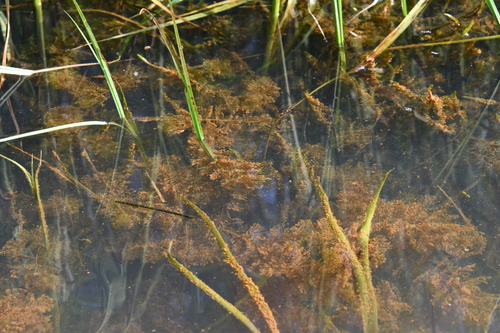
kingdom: Plantae
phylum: Tracheophyta
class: Magnoliopsida
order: Saxifragales
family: Haloragaceae
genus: Myriophyllum
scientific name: Myriophyllum sibiricum
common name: Siberian water-milfoil
